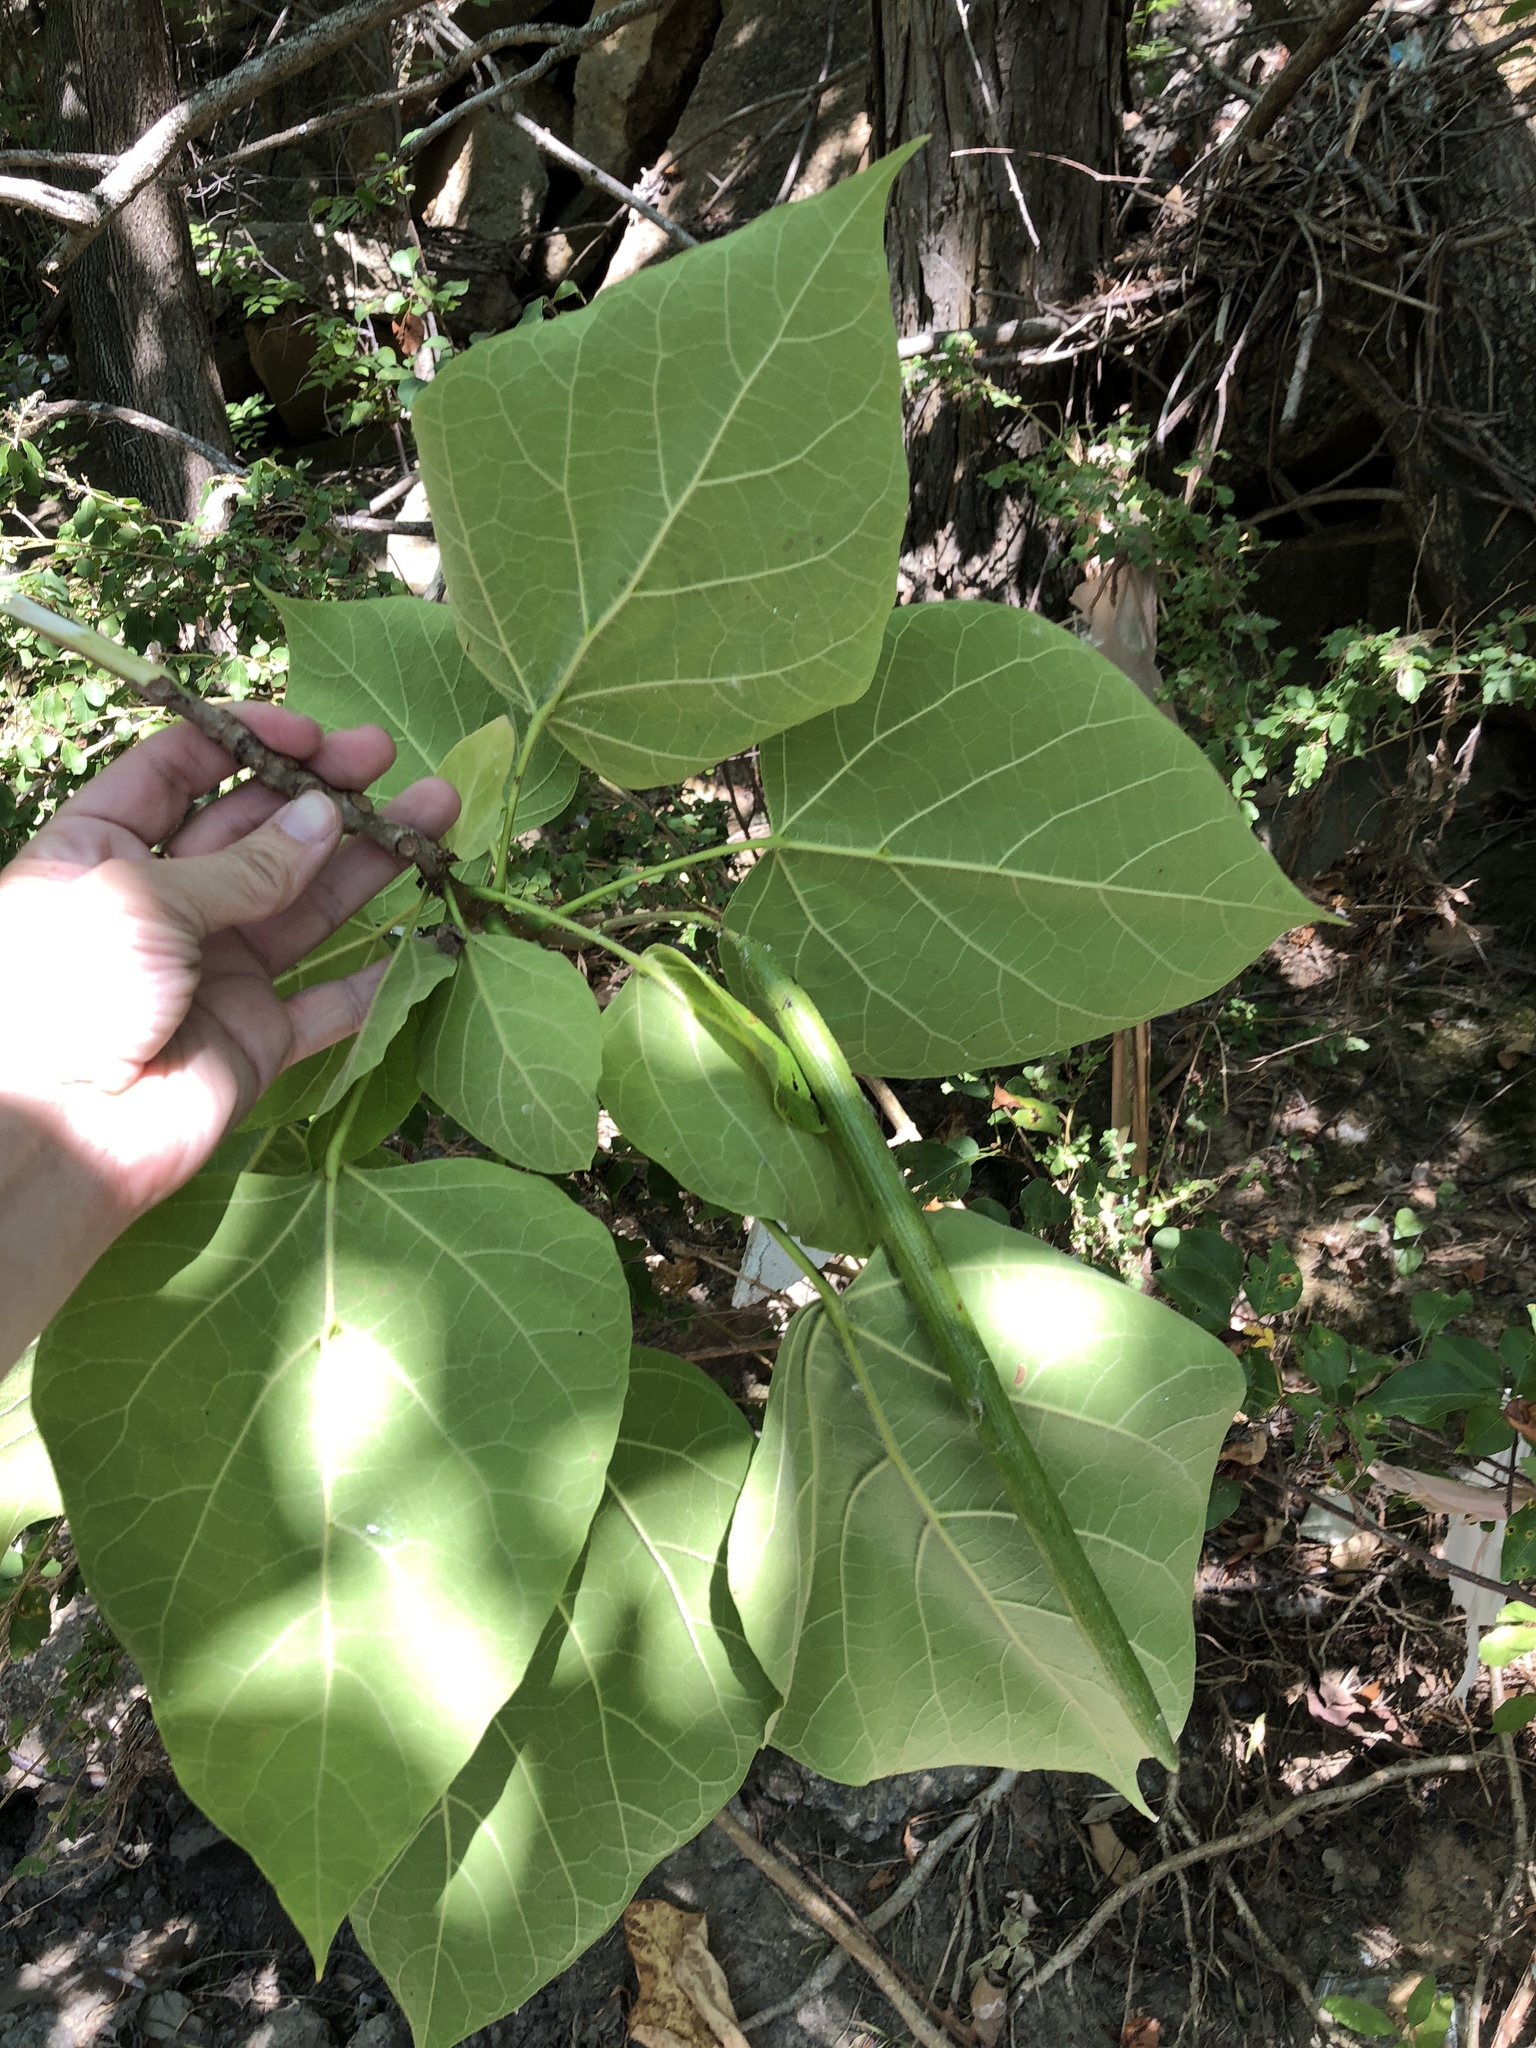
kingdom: Plantae
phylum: Tracheophyta
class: Magnoliopsida
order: Lamiales
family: Bignoniaceae
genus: Catalpa
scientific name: Catalpa speciosa
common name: Northern catalpa
